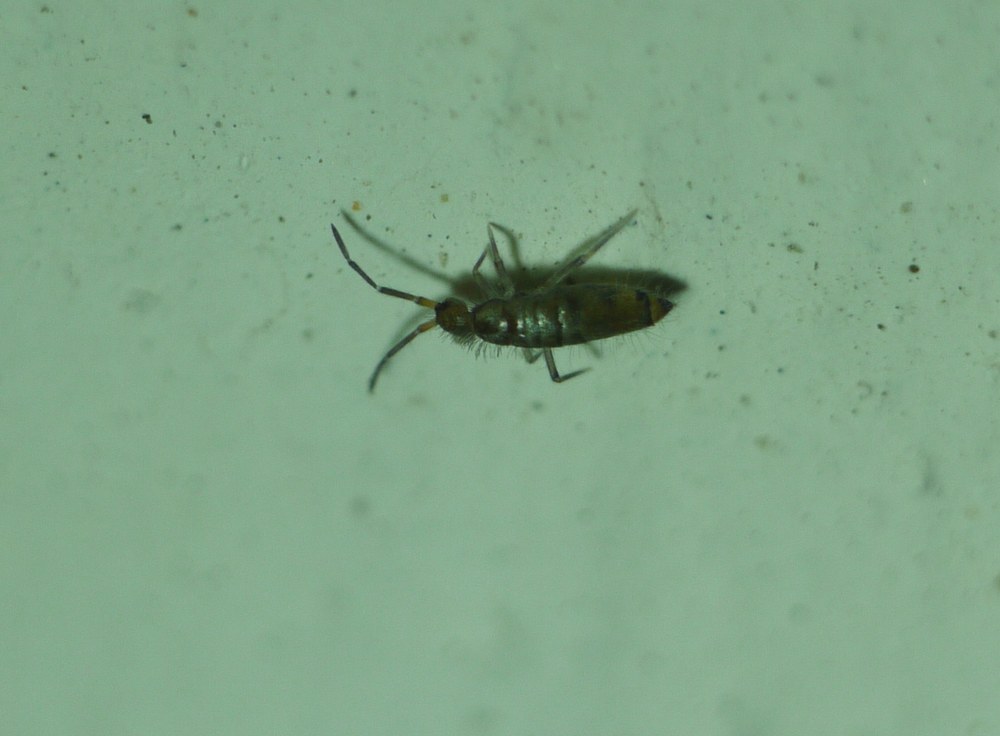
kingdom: Animalia
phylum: Arthropoda
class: Collembola
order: Entomobryomorpha
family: Entomobryidae
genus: Willowsia
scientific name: Willowsia nigromaculata
